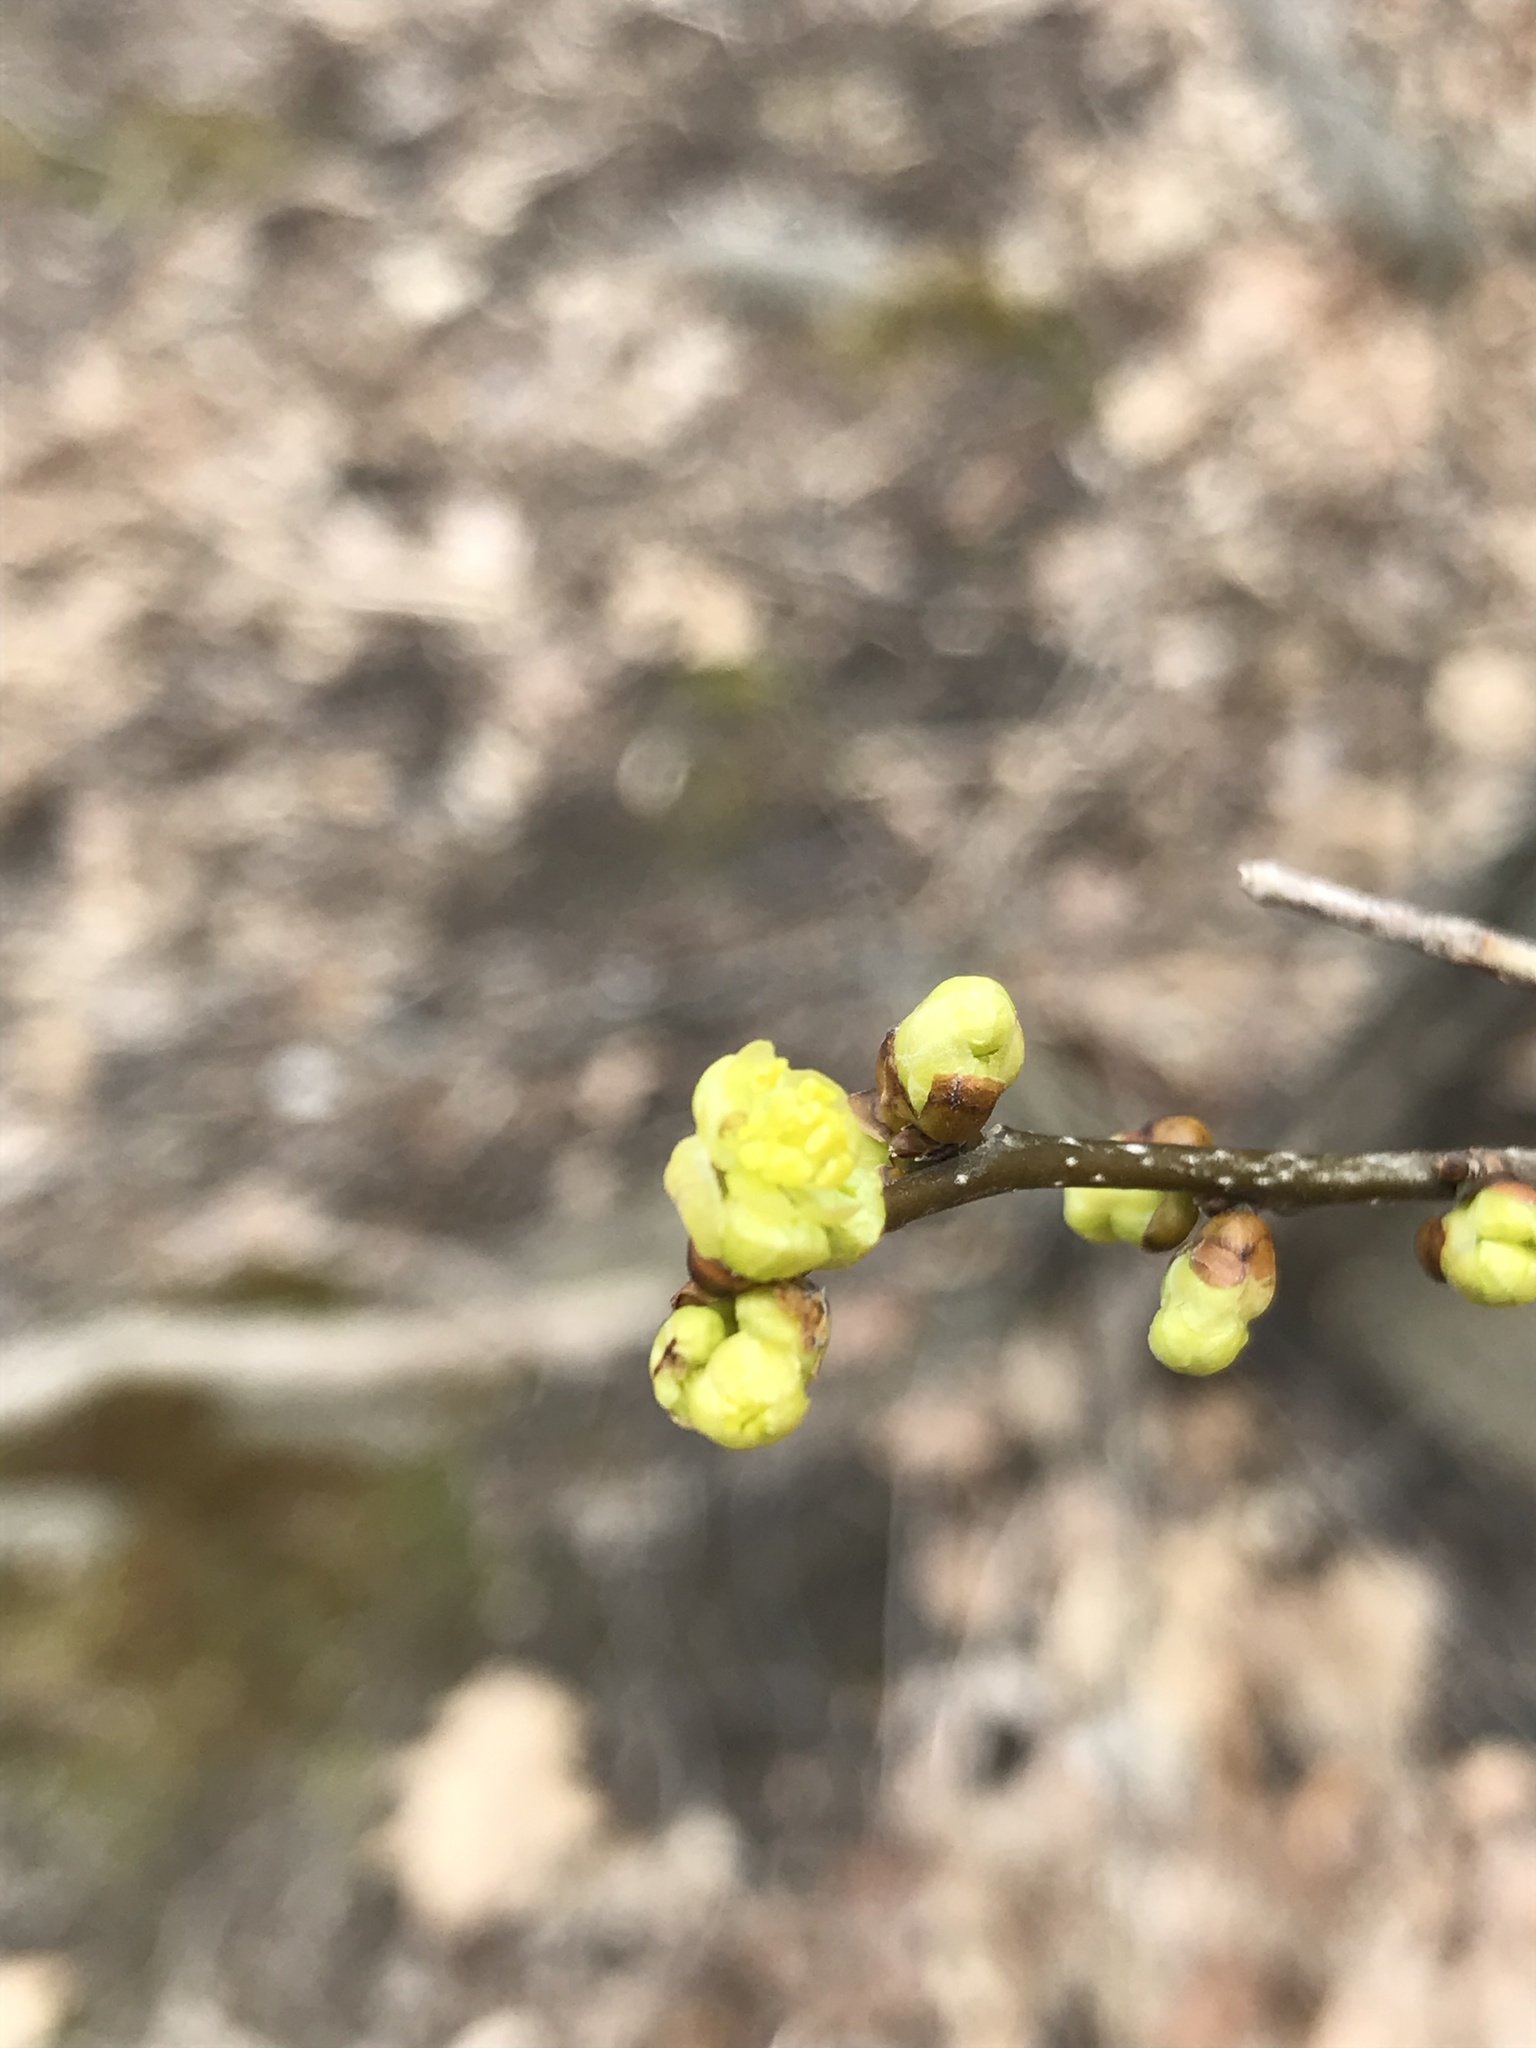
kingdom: Plantae
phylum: Tracheophyta
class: Magnoliopsida
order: Laurales
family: Lauraceae
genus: Lindera
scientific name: Lindera benzoin
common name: Spicebush
